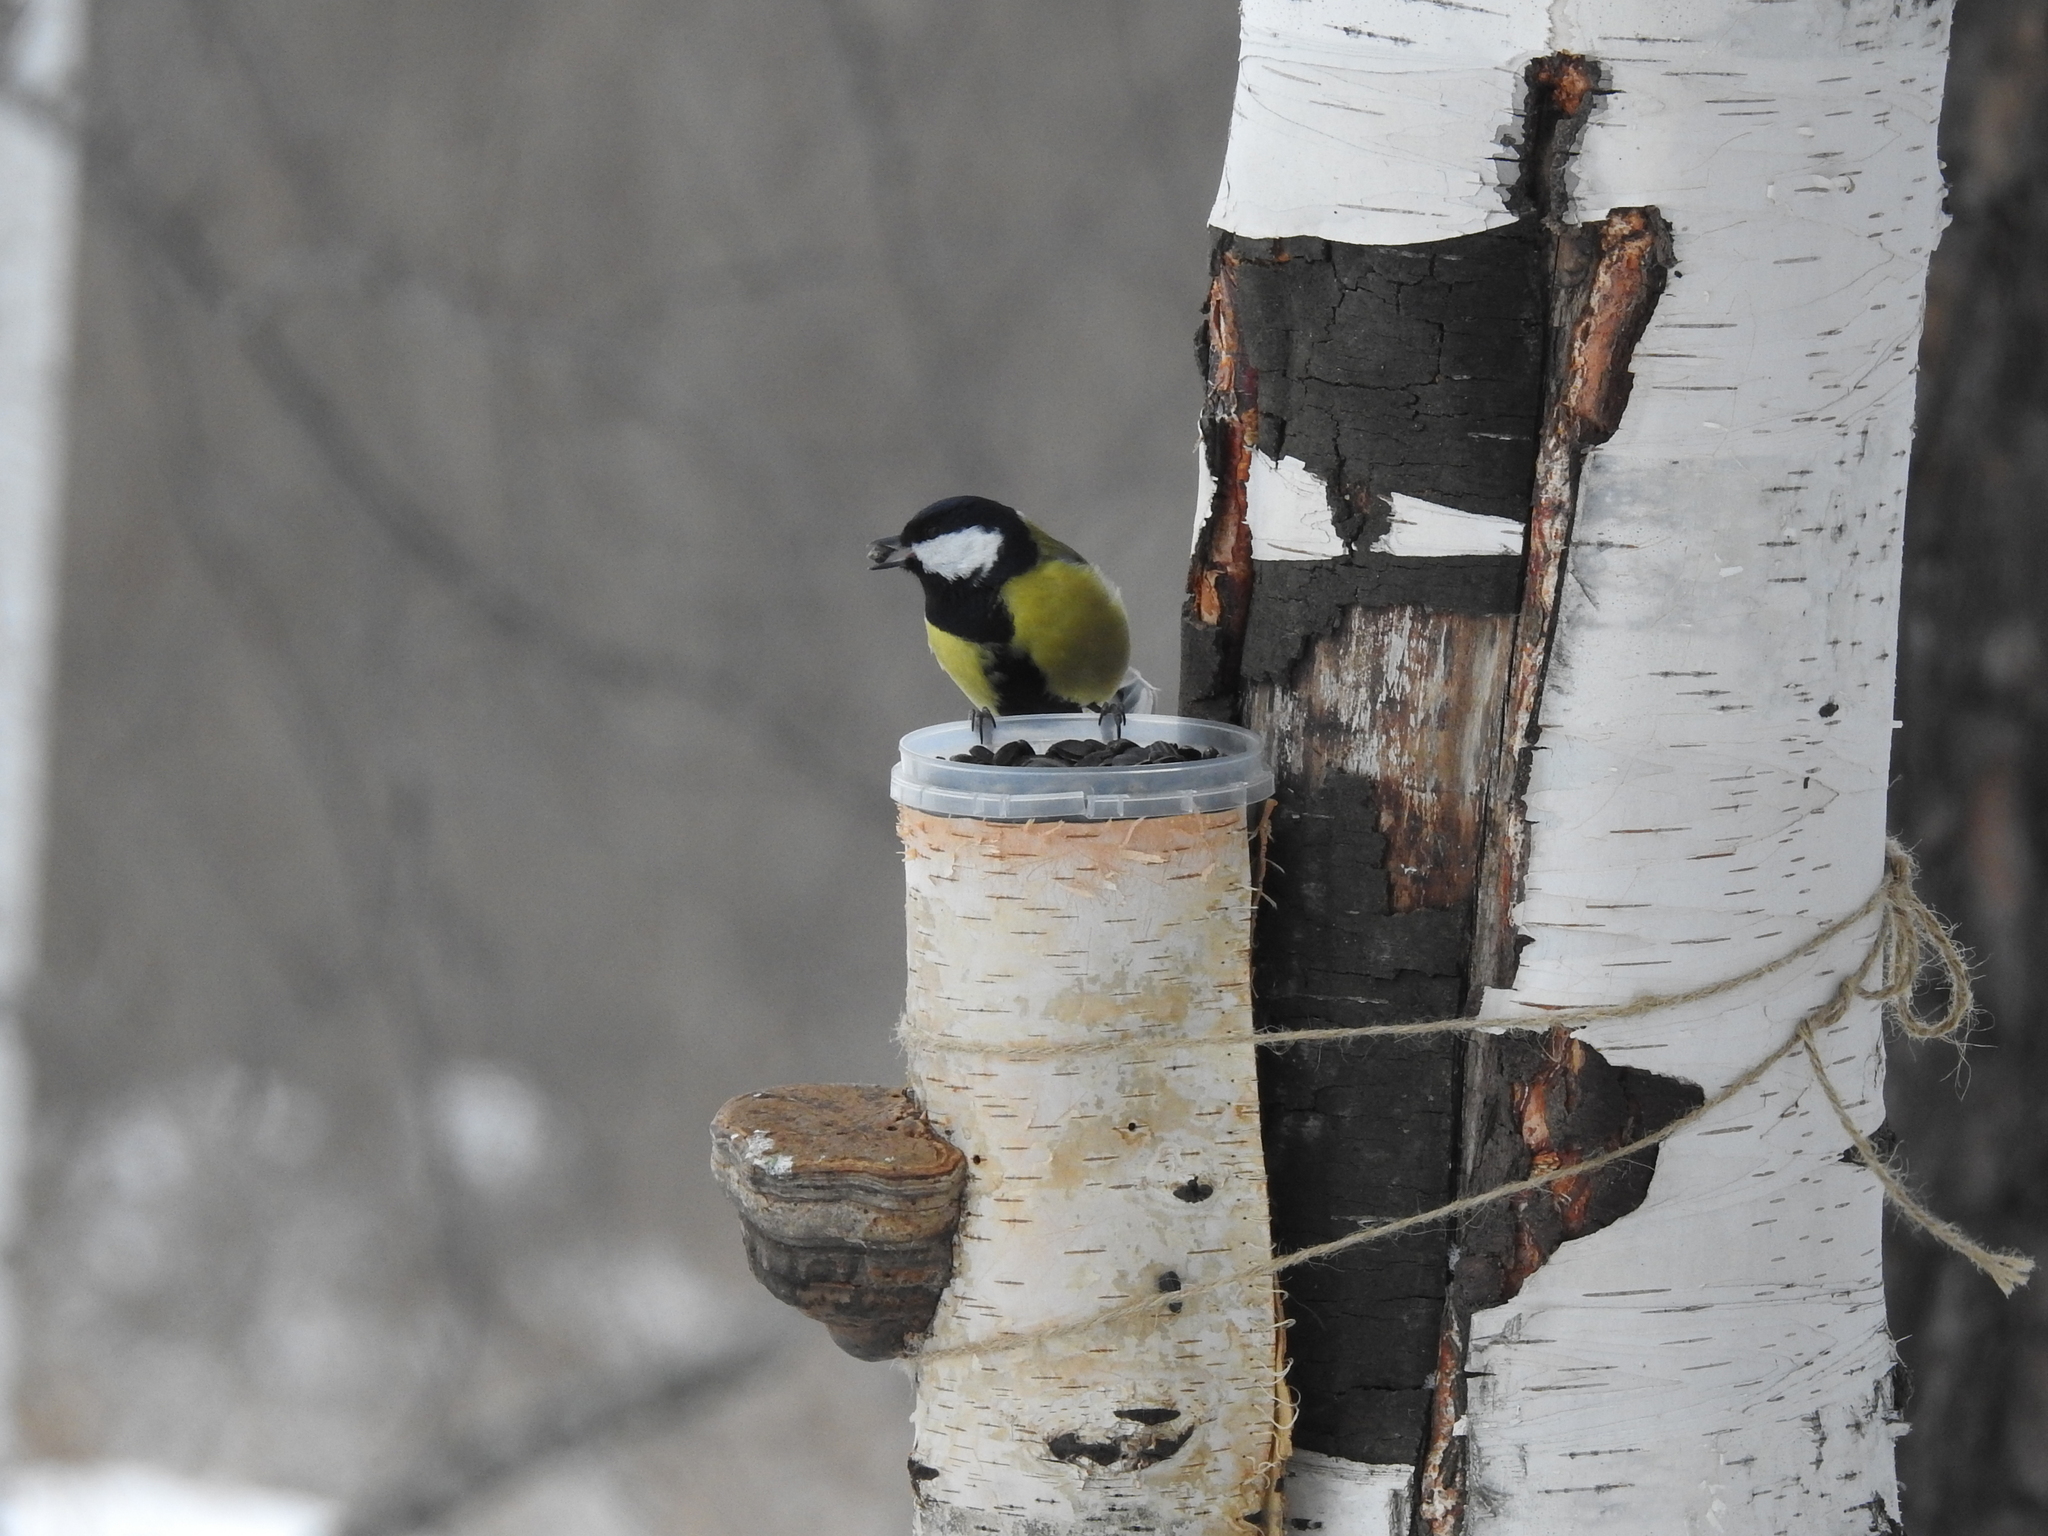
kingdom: Animalia
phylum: Chordata
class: Aves
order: Passeriformes
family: Paridae
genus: Parus
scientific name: Parus major
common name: Great tit
